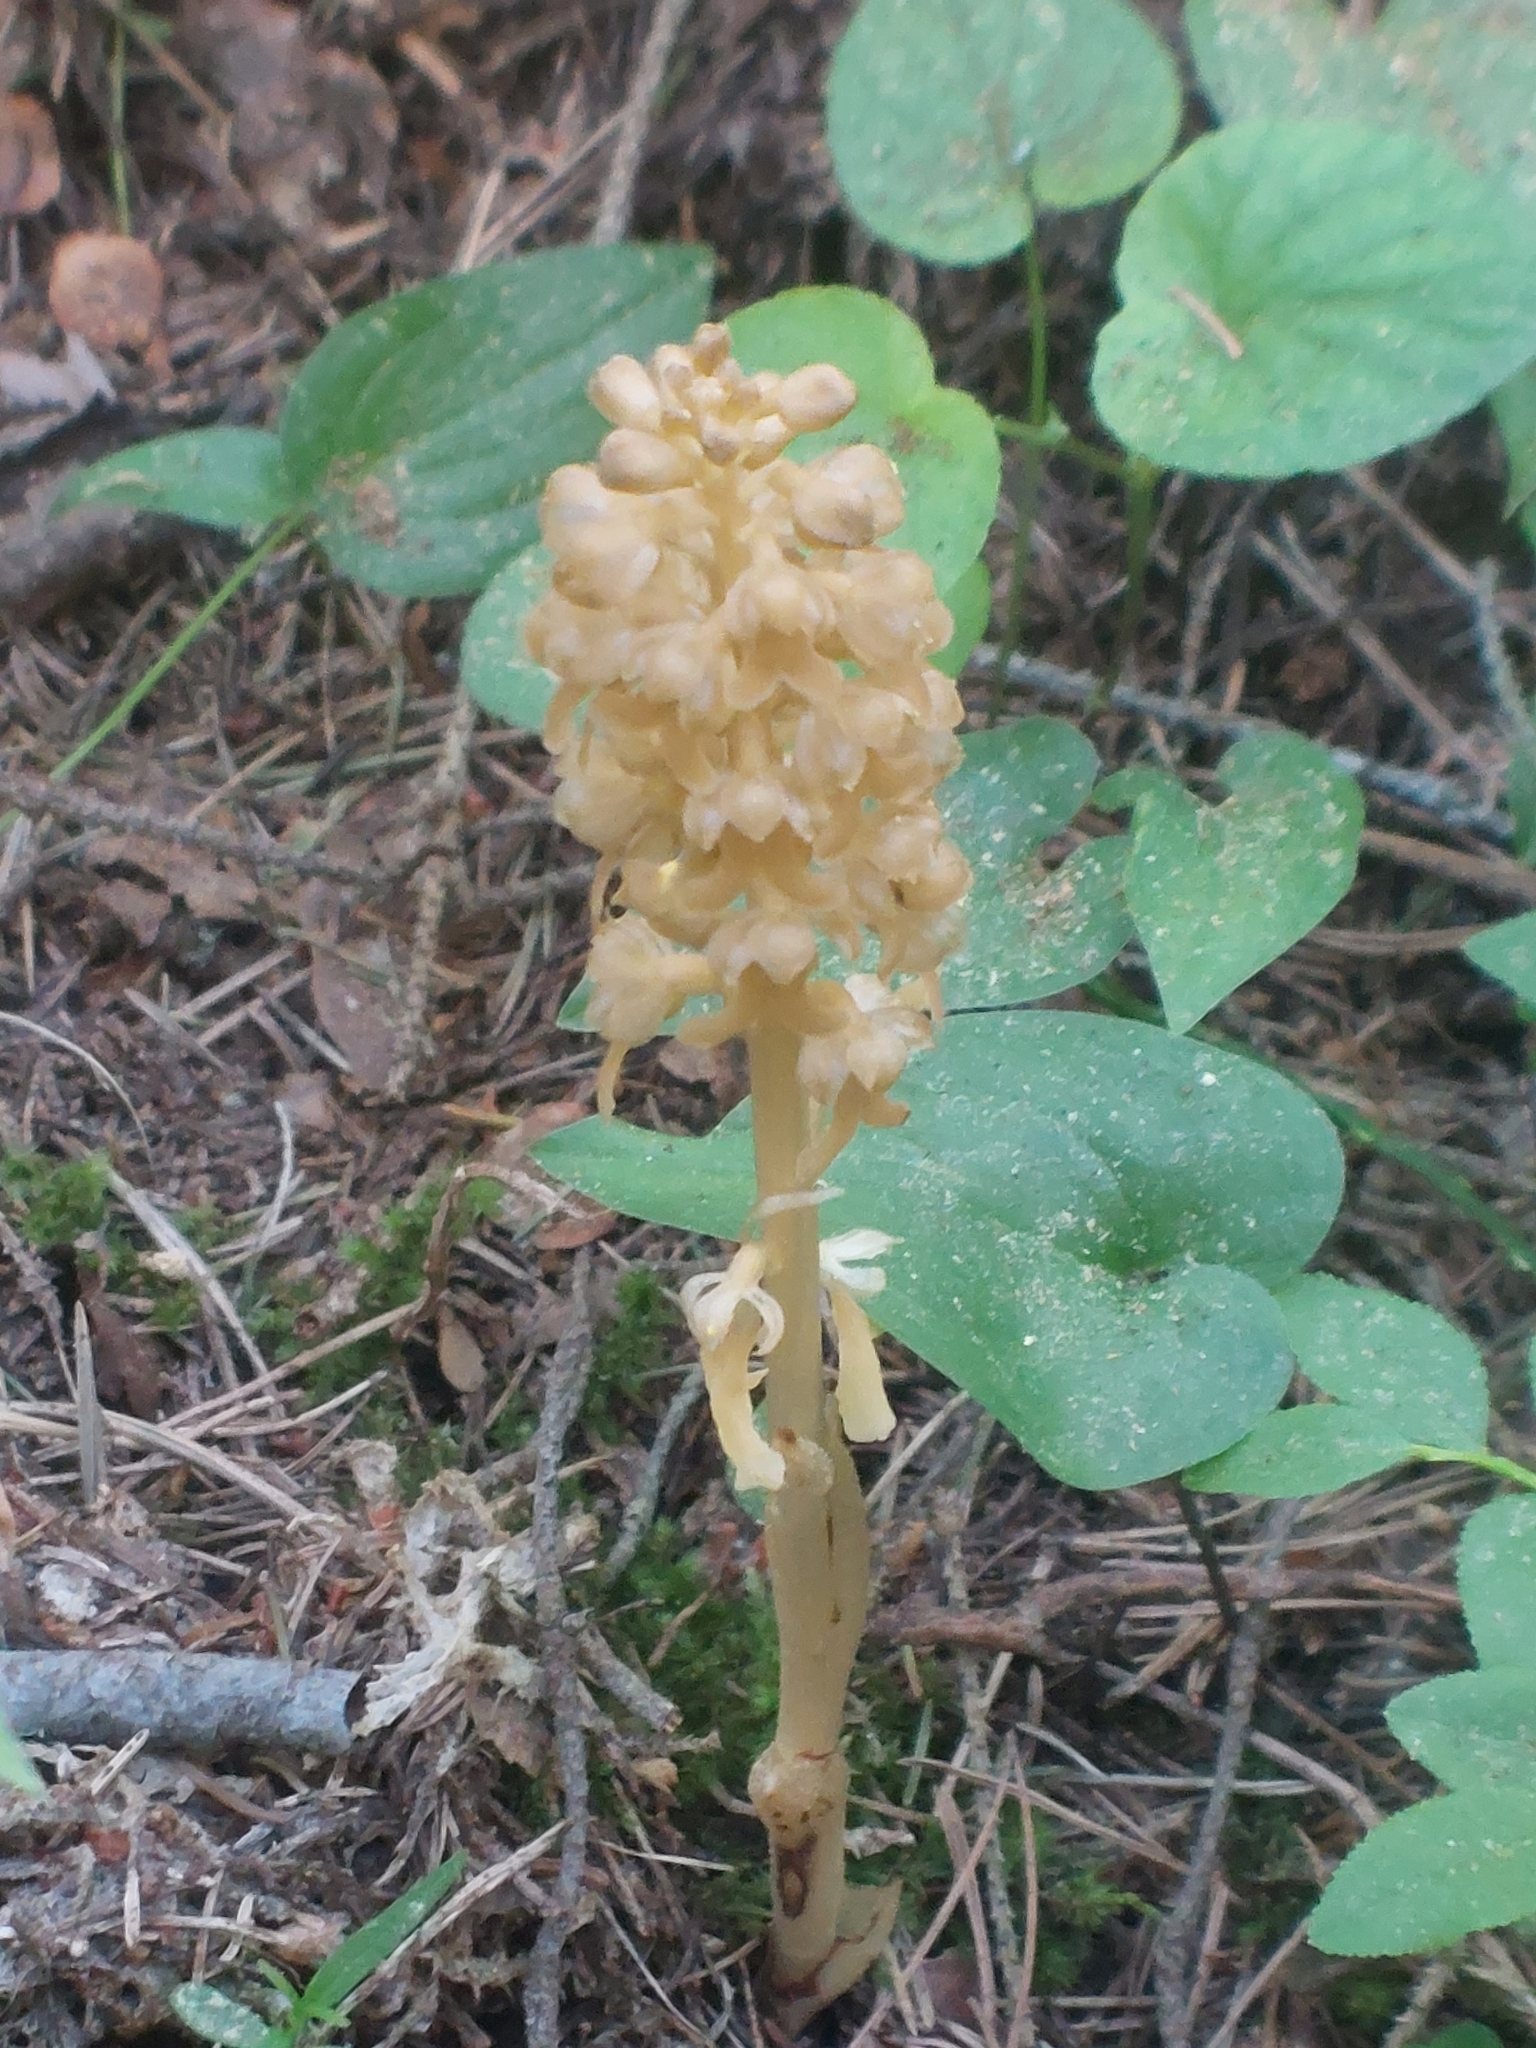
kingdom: Plantae
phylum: Tracheophyta
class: Liliopsida
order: Asparagales
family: Orchidaceae
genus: Neottia
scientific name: Neottia nidus-avis
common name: Bird's-nest orchid
